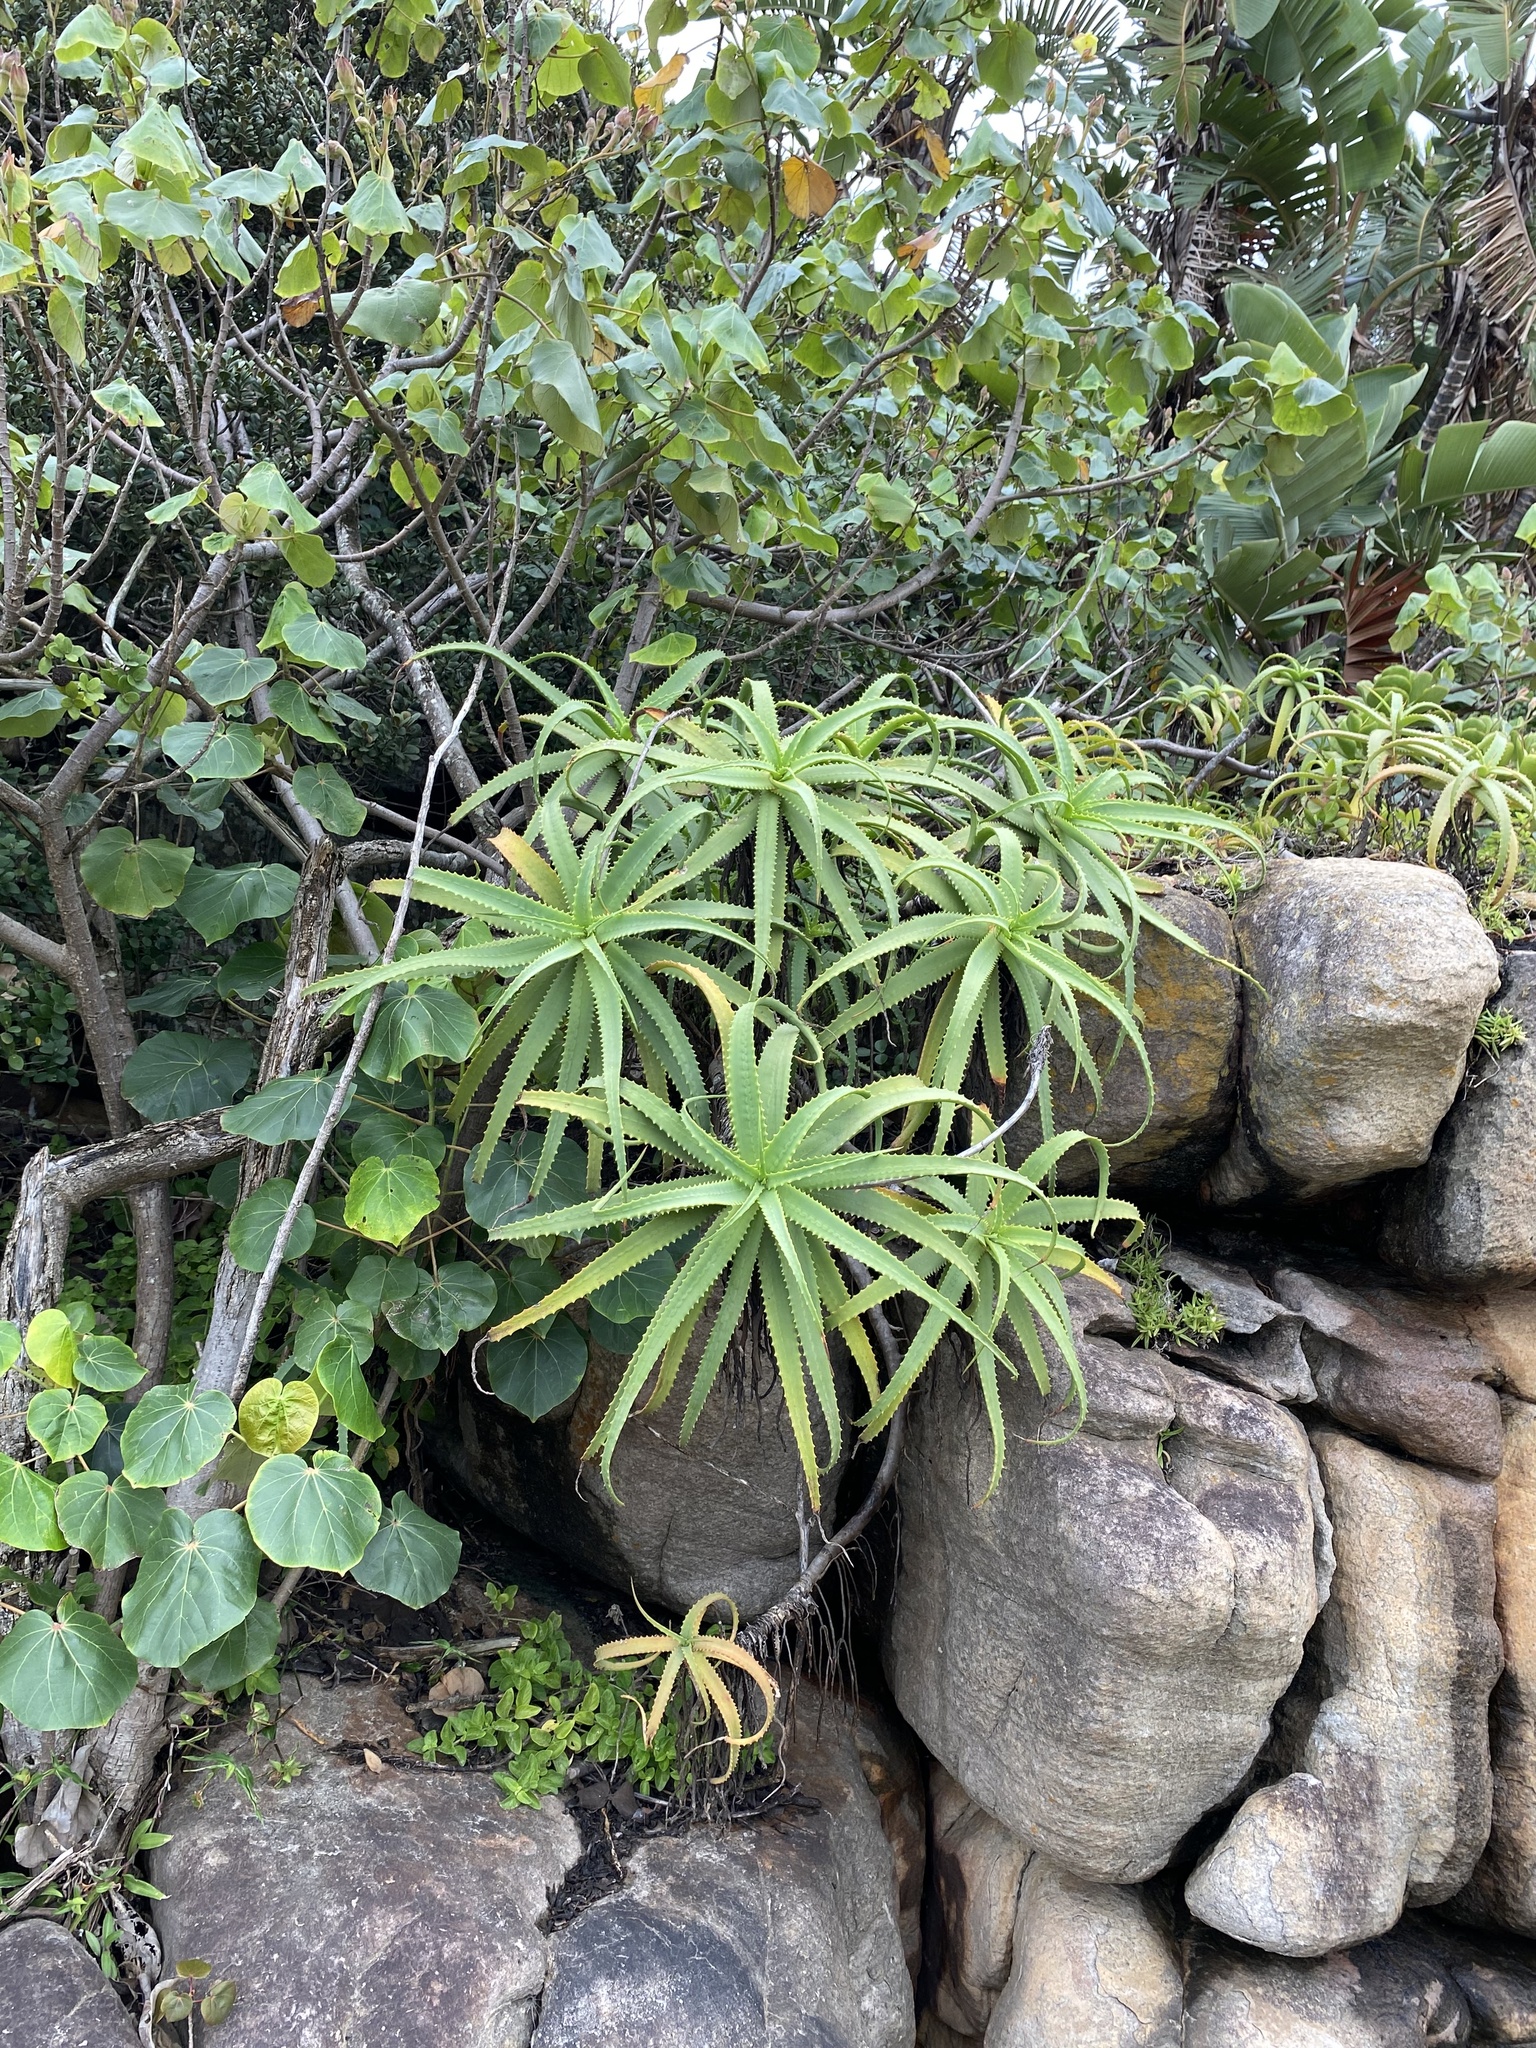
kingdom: Plantae
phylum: Tracheophyta
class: Liliopsida
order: Asparagales
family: Asphodelaceae
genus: Aloe
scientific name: Aloe arborescens
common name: Candelabra aloe
